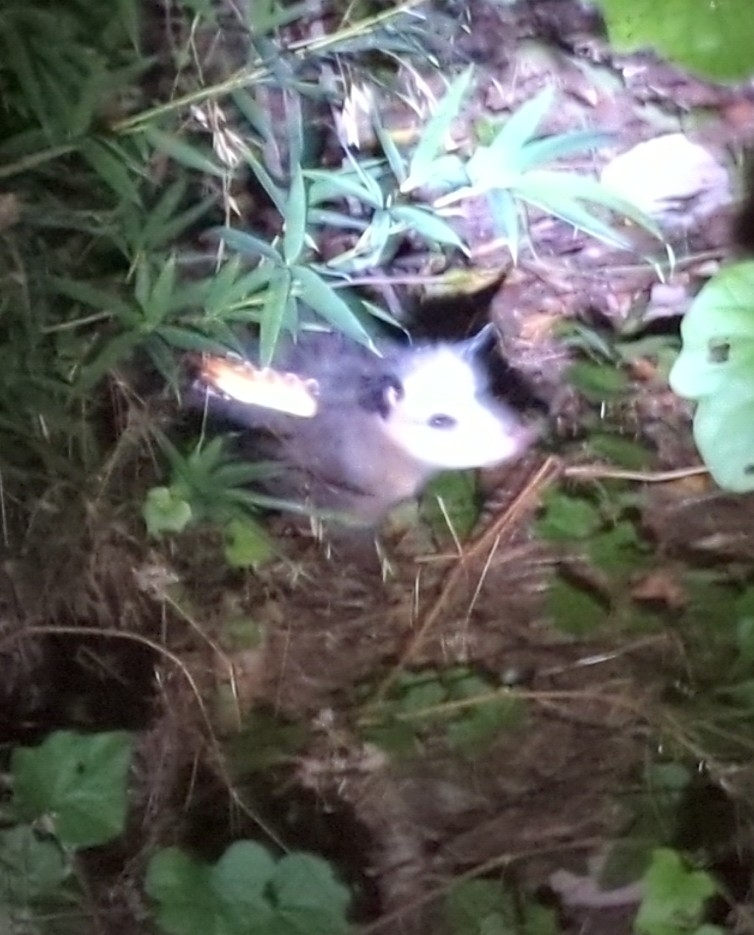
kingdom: Animalia
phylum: Chordata
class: Mammalia
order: Didelphimorphia
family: Didelphidae
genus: Didelphis
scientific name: Didelphis virginiana
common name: Virginia opossum
